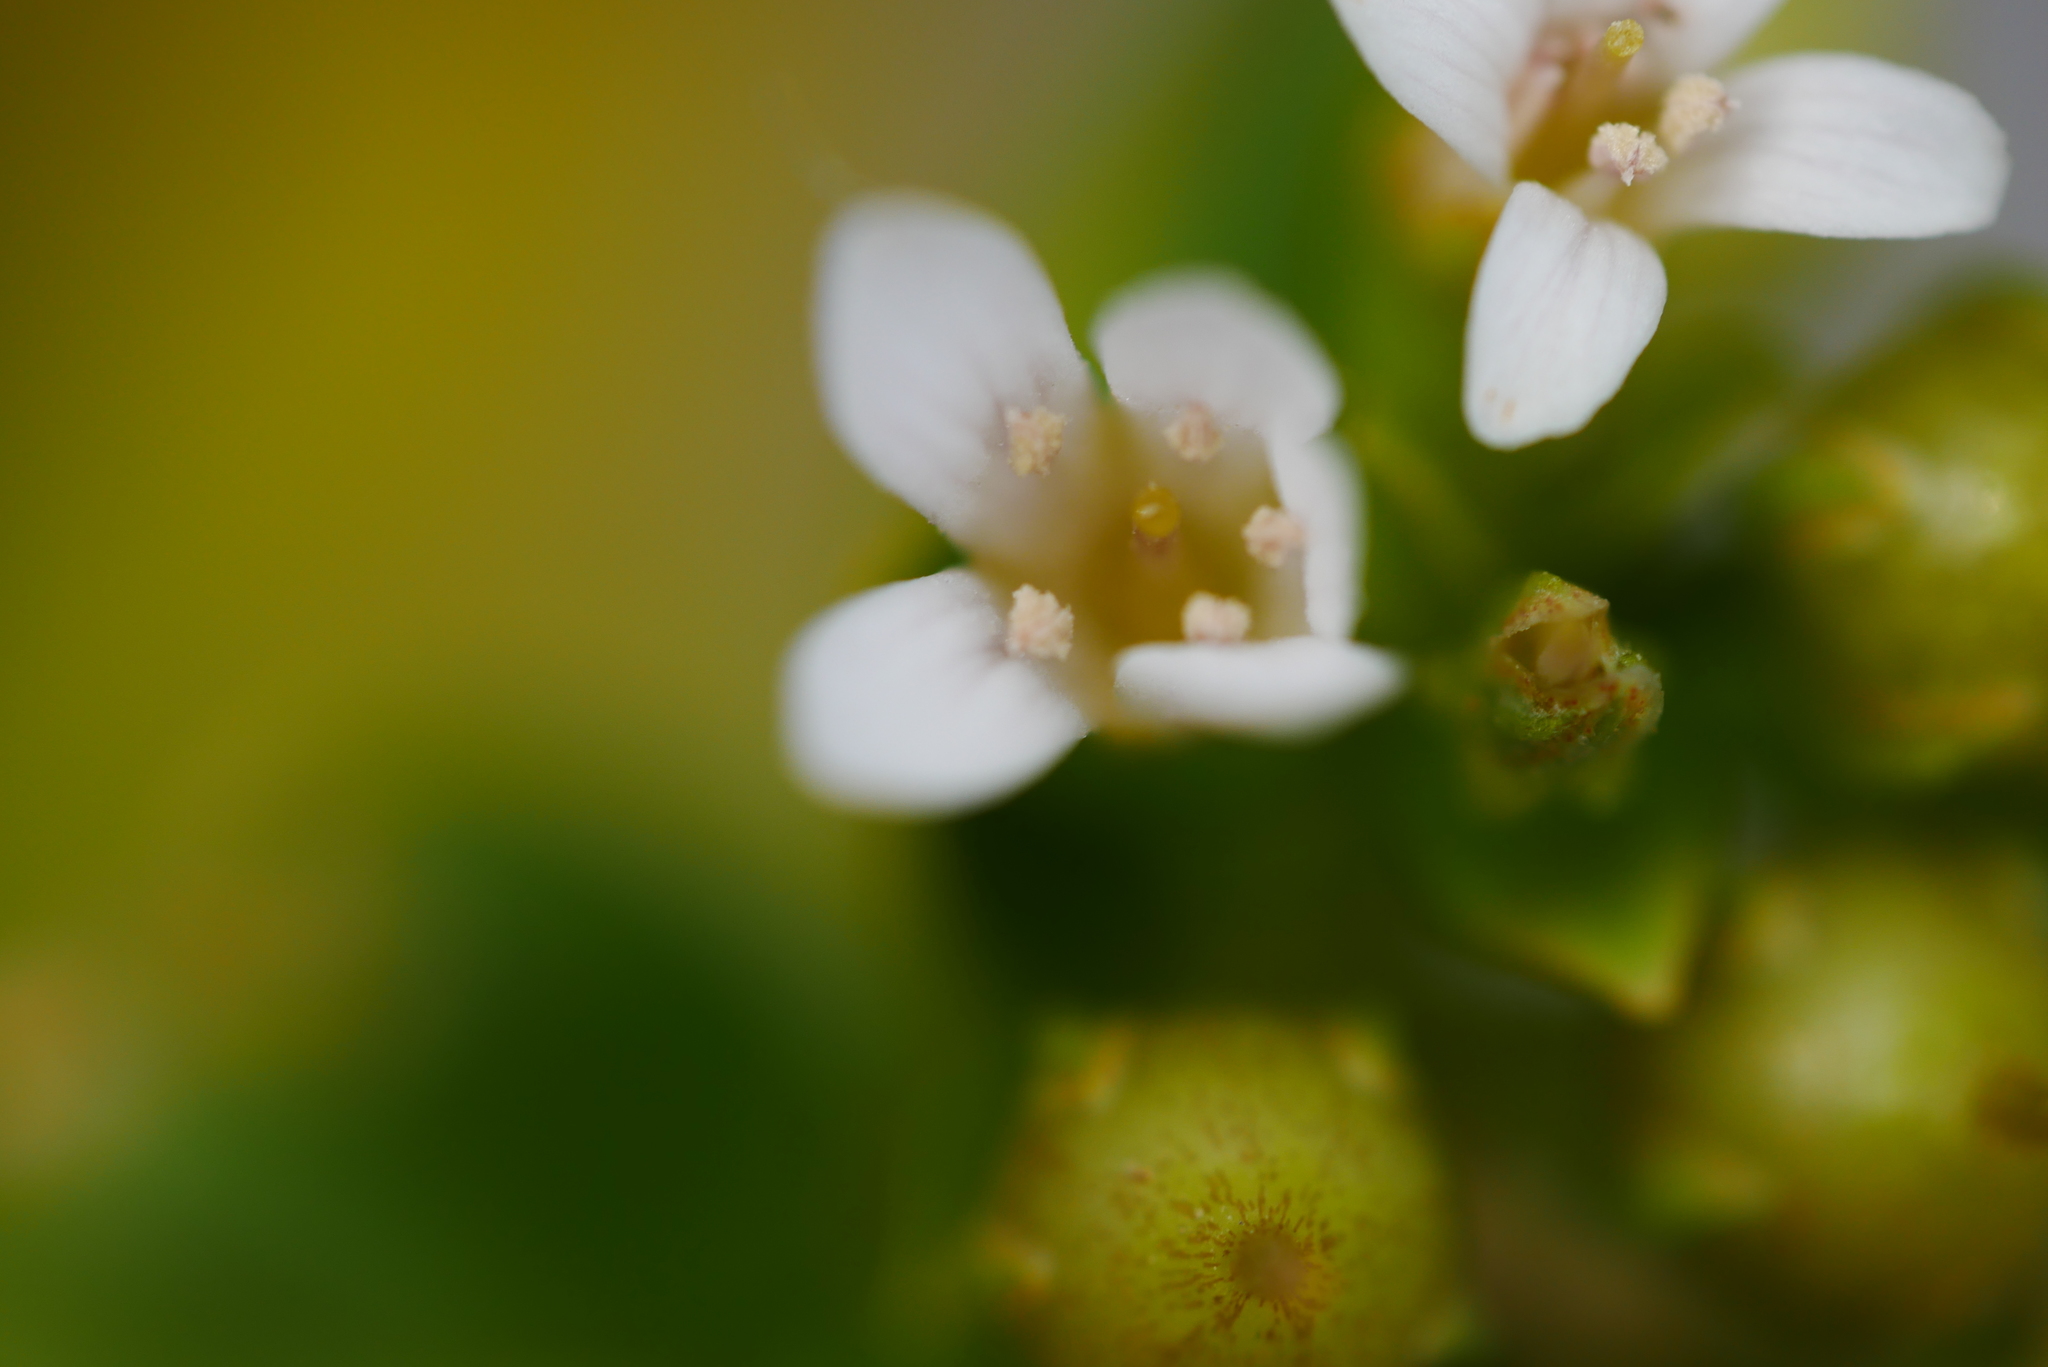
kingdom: Plantae
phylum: Tracheophyta
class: Magnoliopsida
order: Ericales
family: Primulaceae
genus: Lysimachia
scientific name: Lysimachia mauritiana
